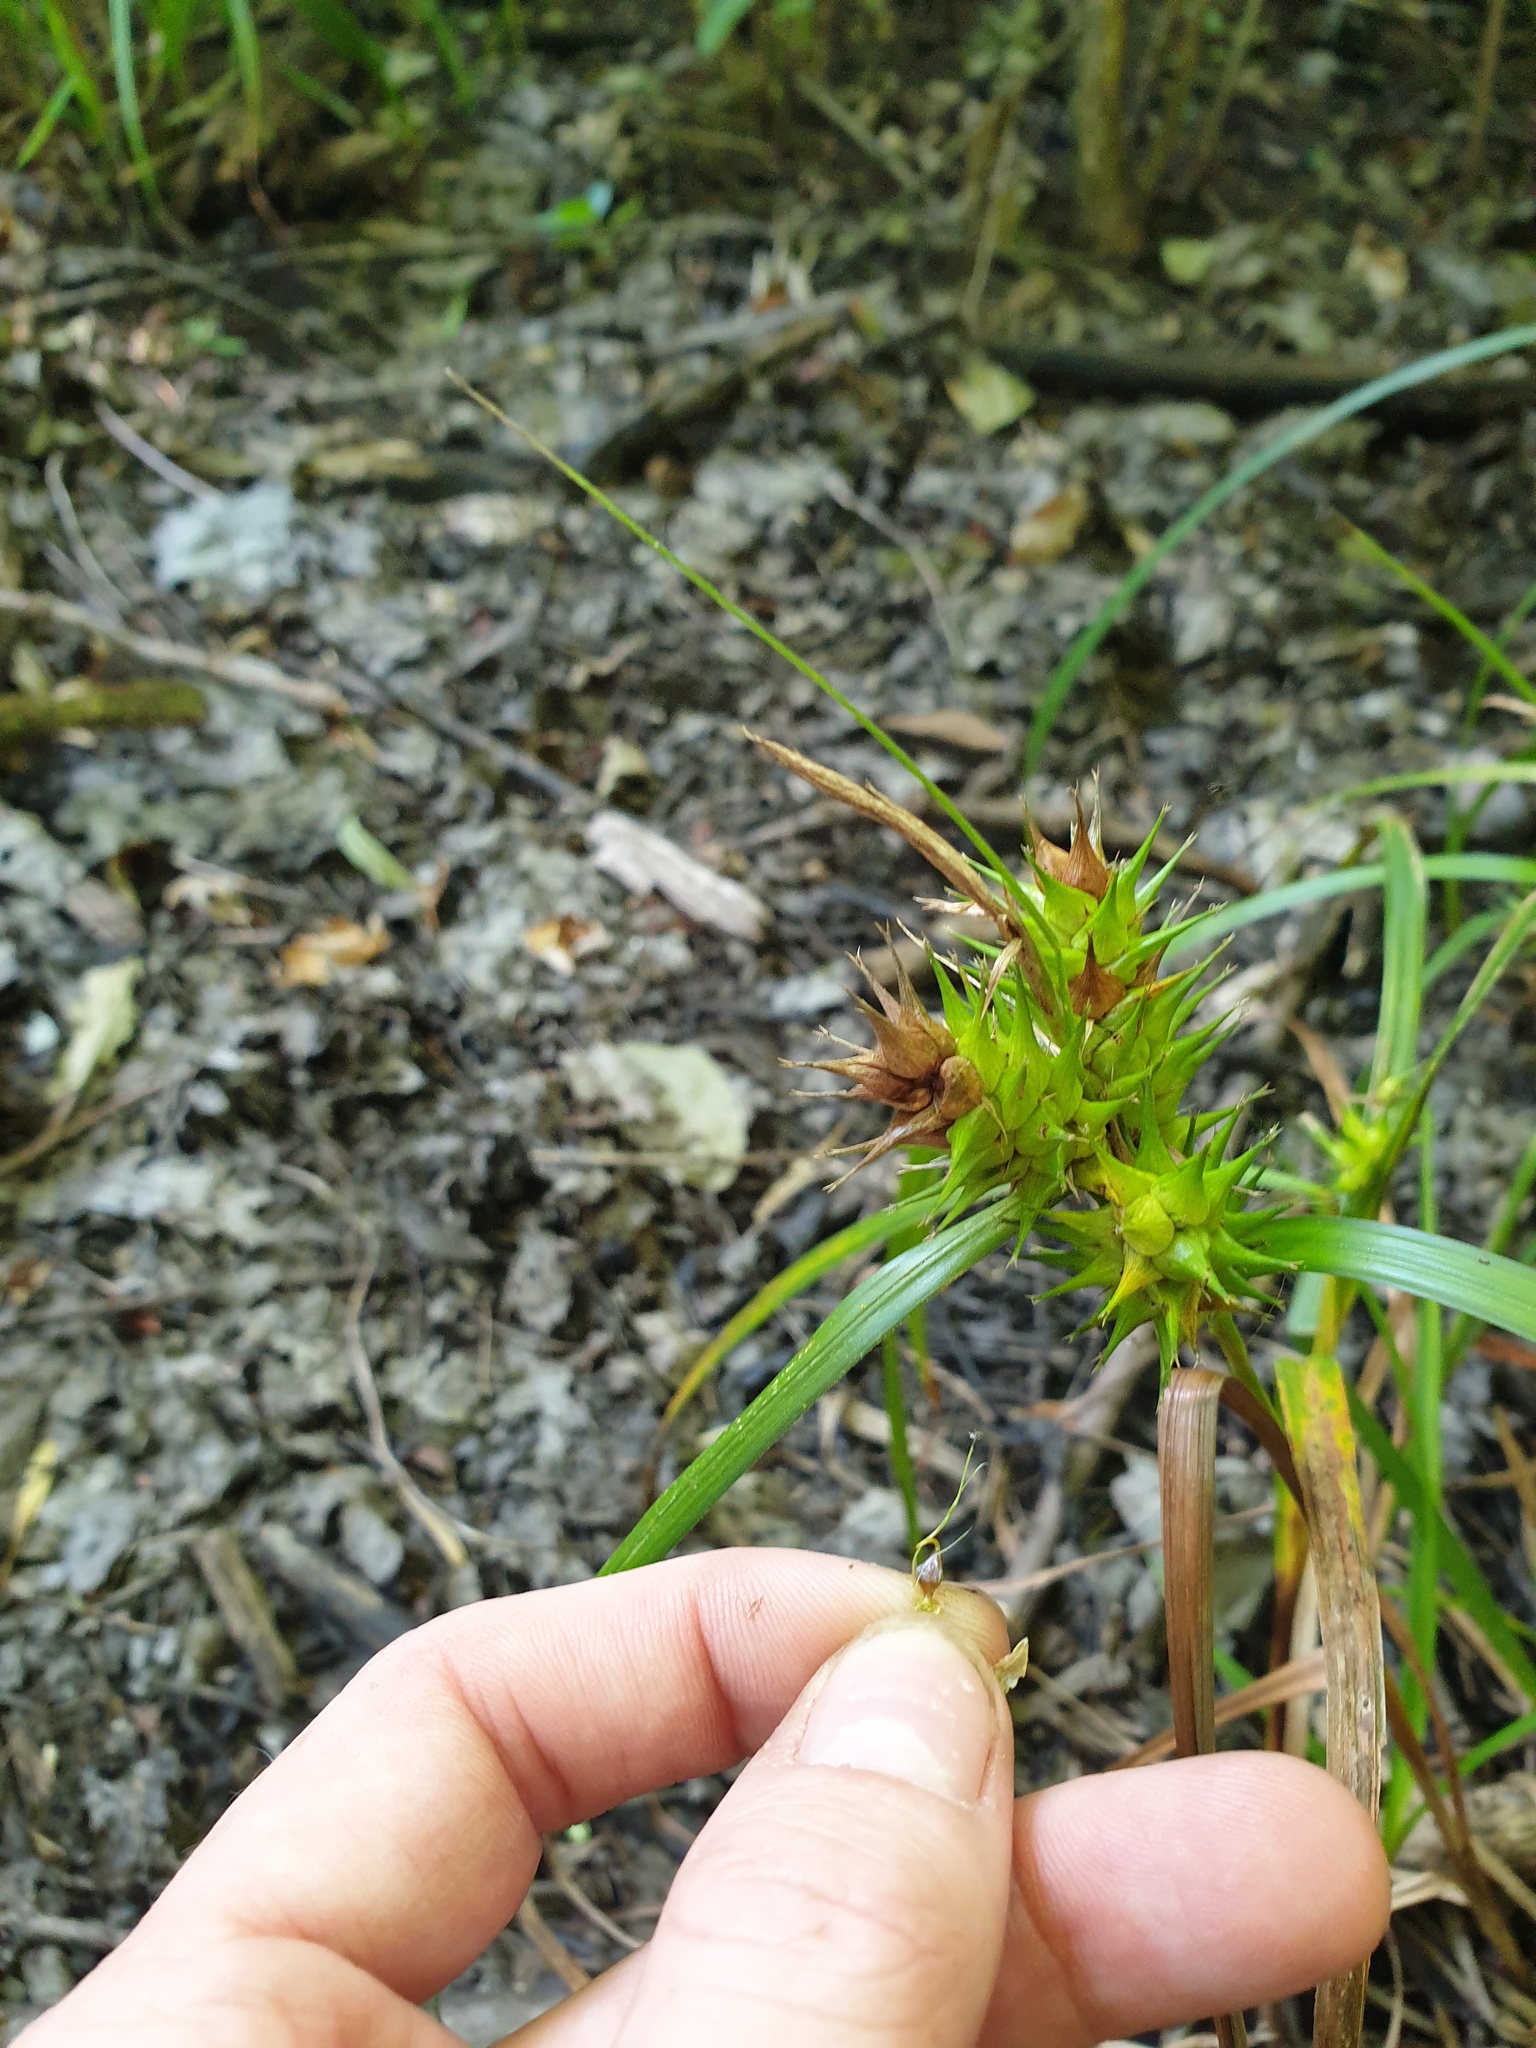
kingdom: Plantae
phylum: Tracheophyta
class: Liliopsida
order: Poales
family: Cyperaceae
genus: Carex
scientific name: Carex lupulina
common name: Hop sedge
